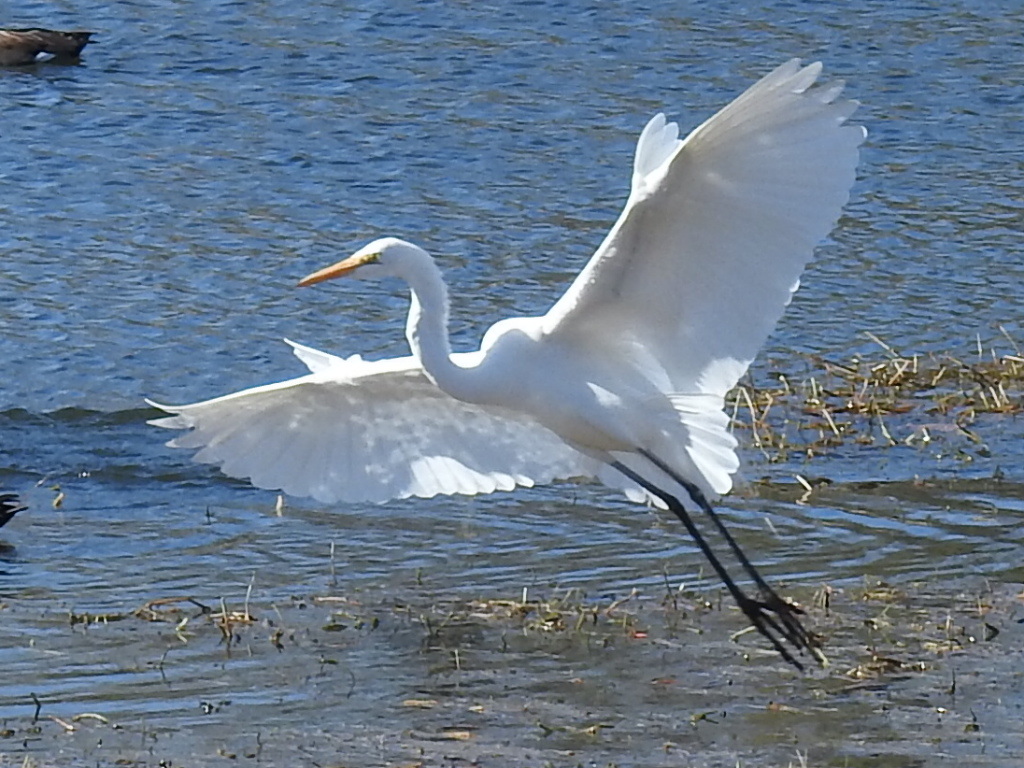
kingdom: Animalia
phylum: Chordata
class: Aves
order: Pelecaniformes
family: Ardeidae
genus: Ardea
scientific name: Ardea alba
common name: Great egret
